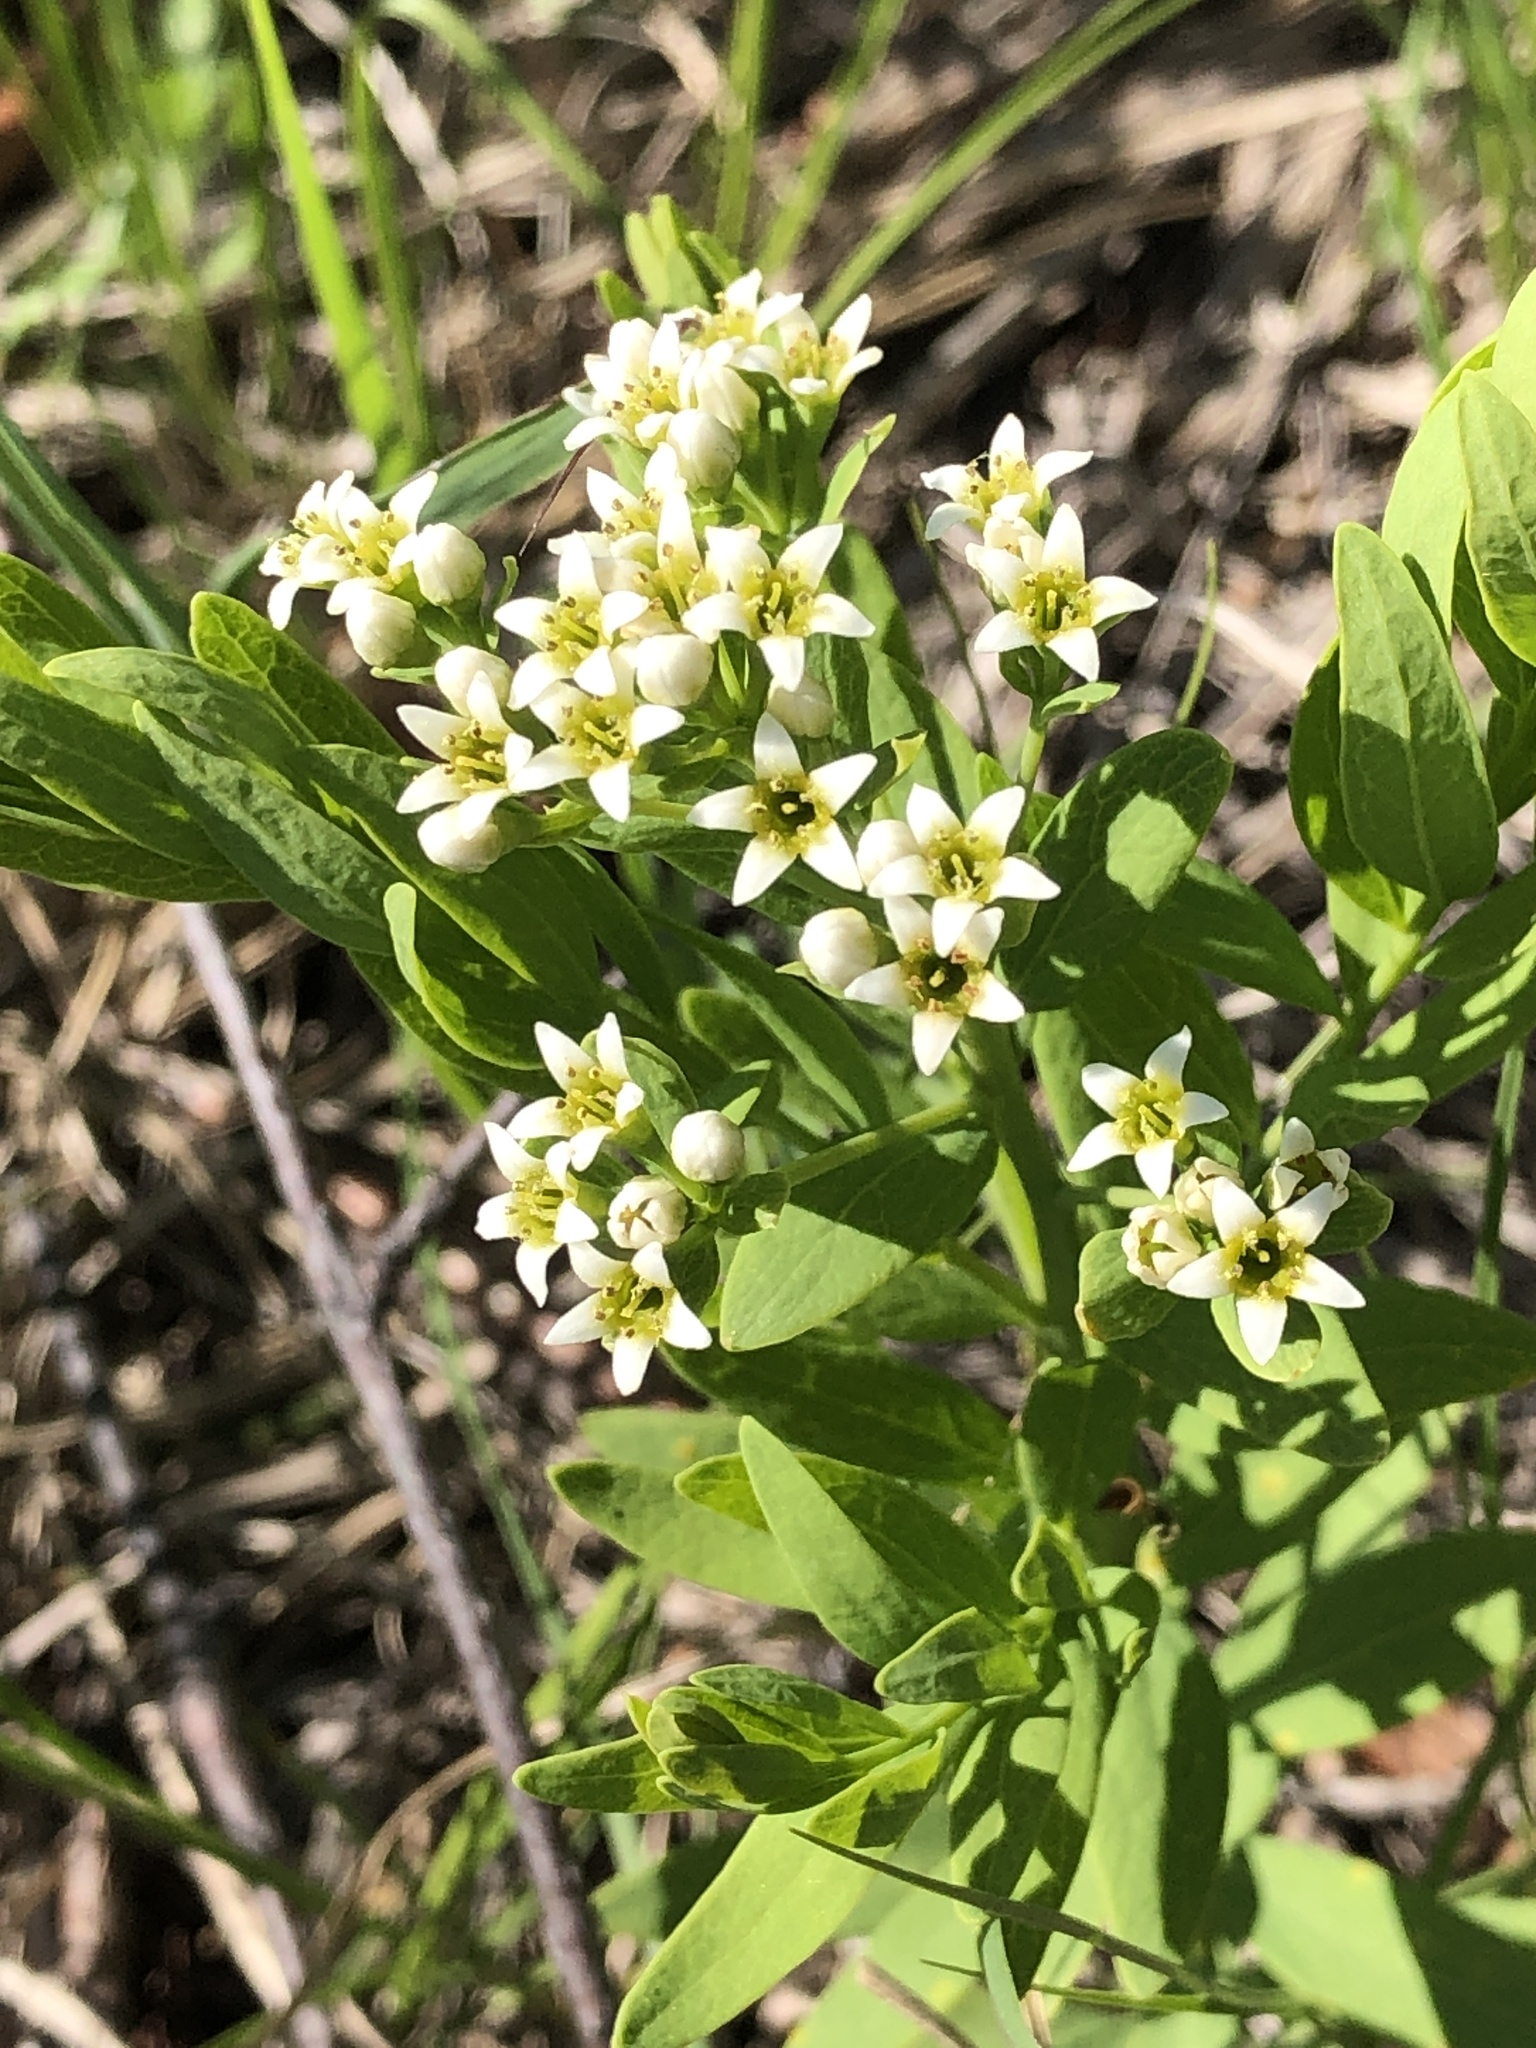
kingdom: Plantae
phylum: Tracheophyta
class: Magnoliopsida
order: Santalales
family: Comandraceae
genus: Comandra
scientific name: Comandra umbellata
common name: Bastard toadflax
